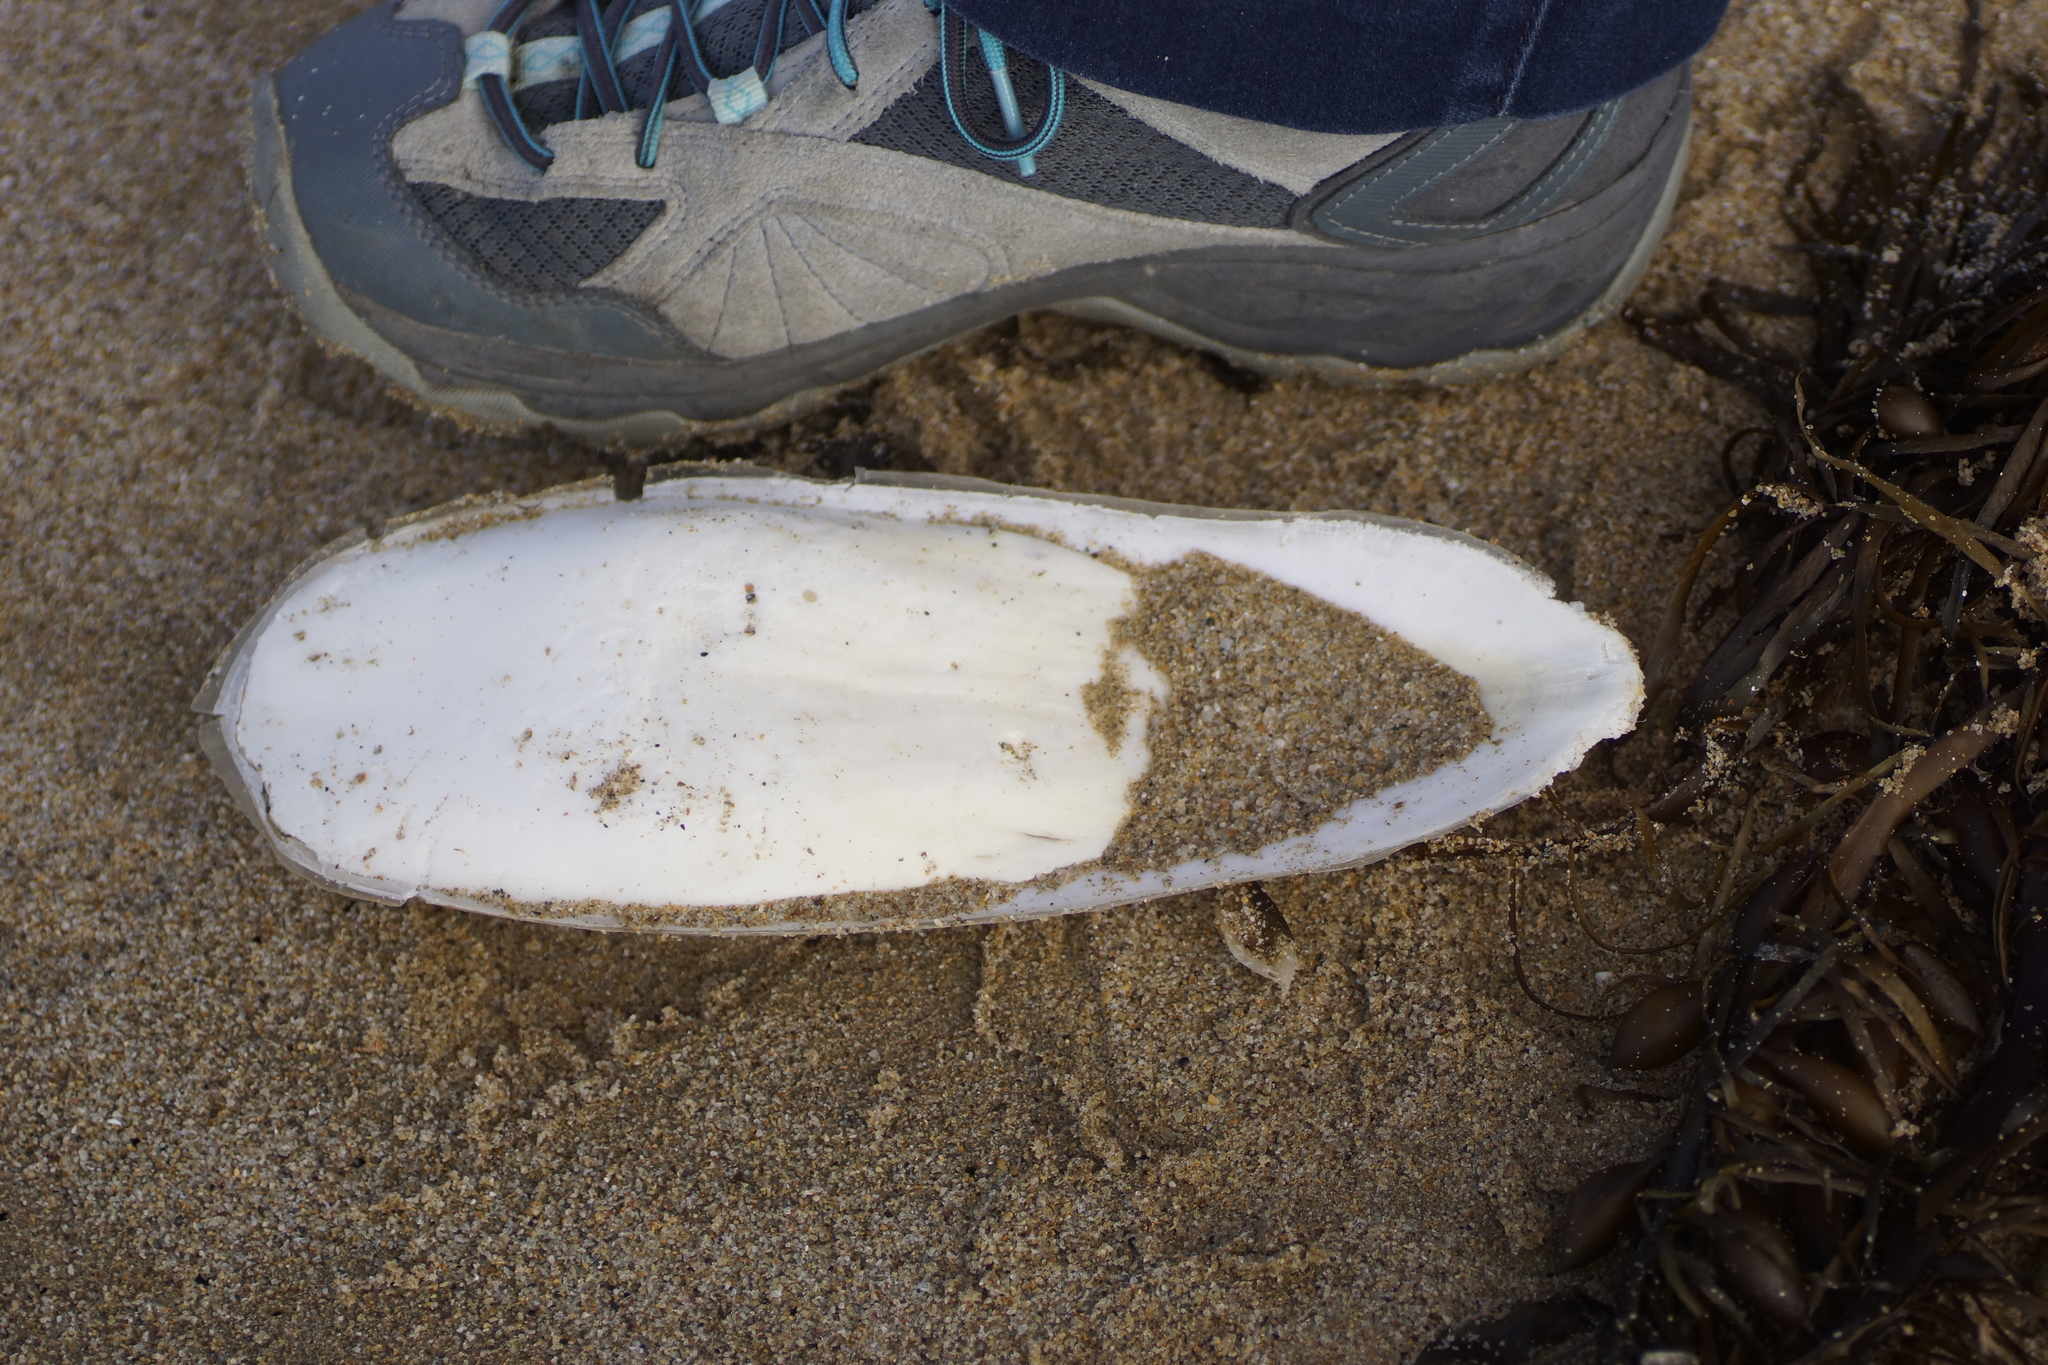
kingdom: Animalia
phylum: Mollusca
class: Cephalopoda
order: Sepiida
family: Sepiidae
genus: Ascarosepion
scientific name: Ascarosepion apama
